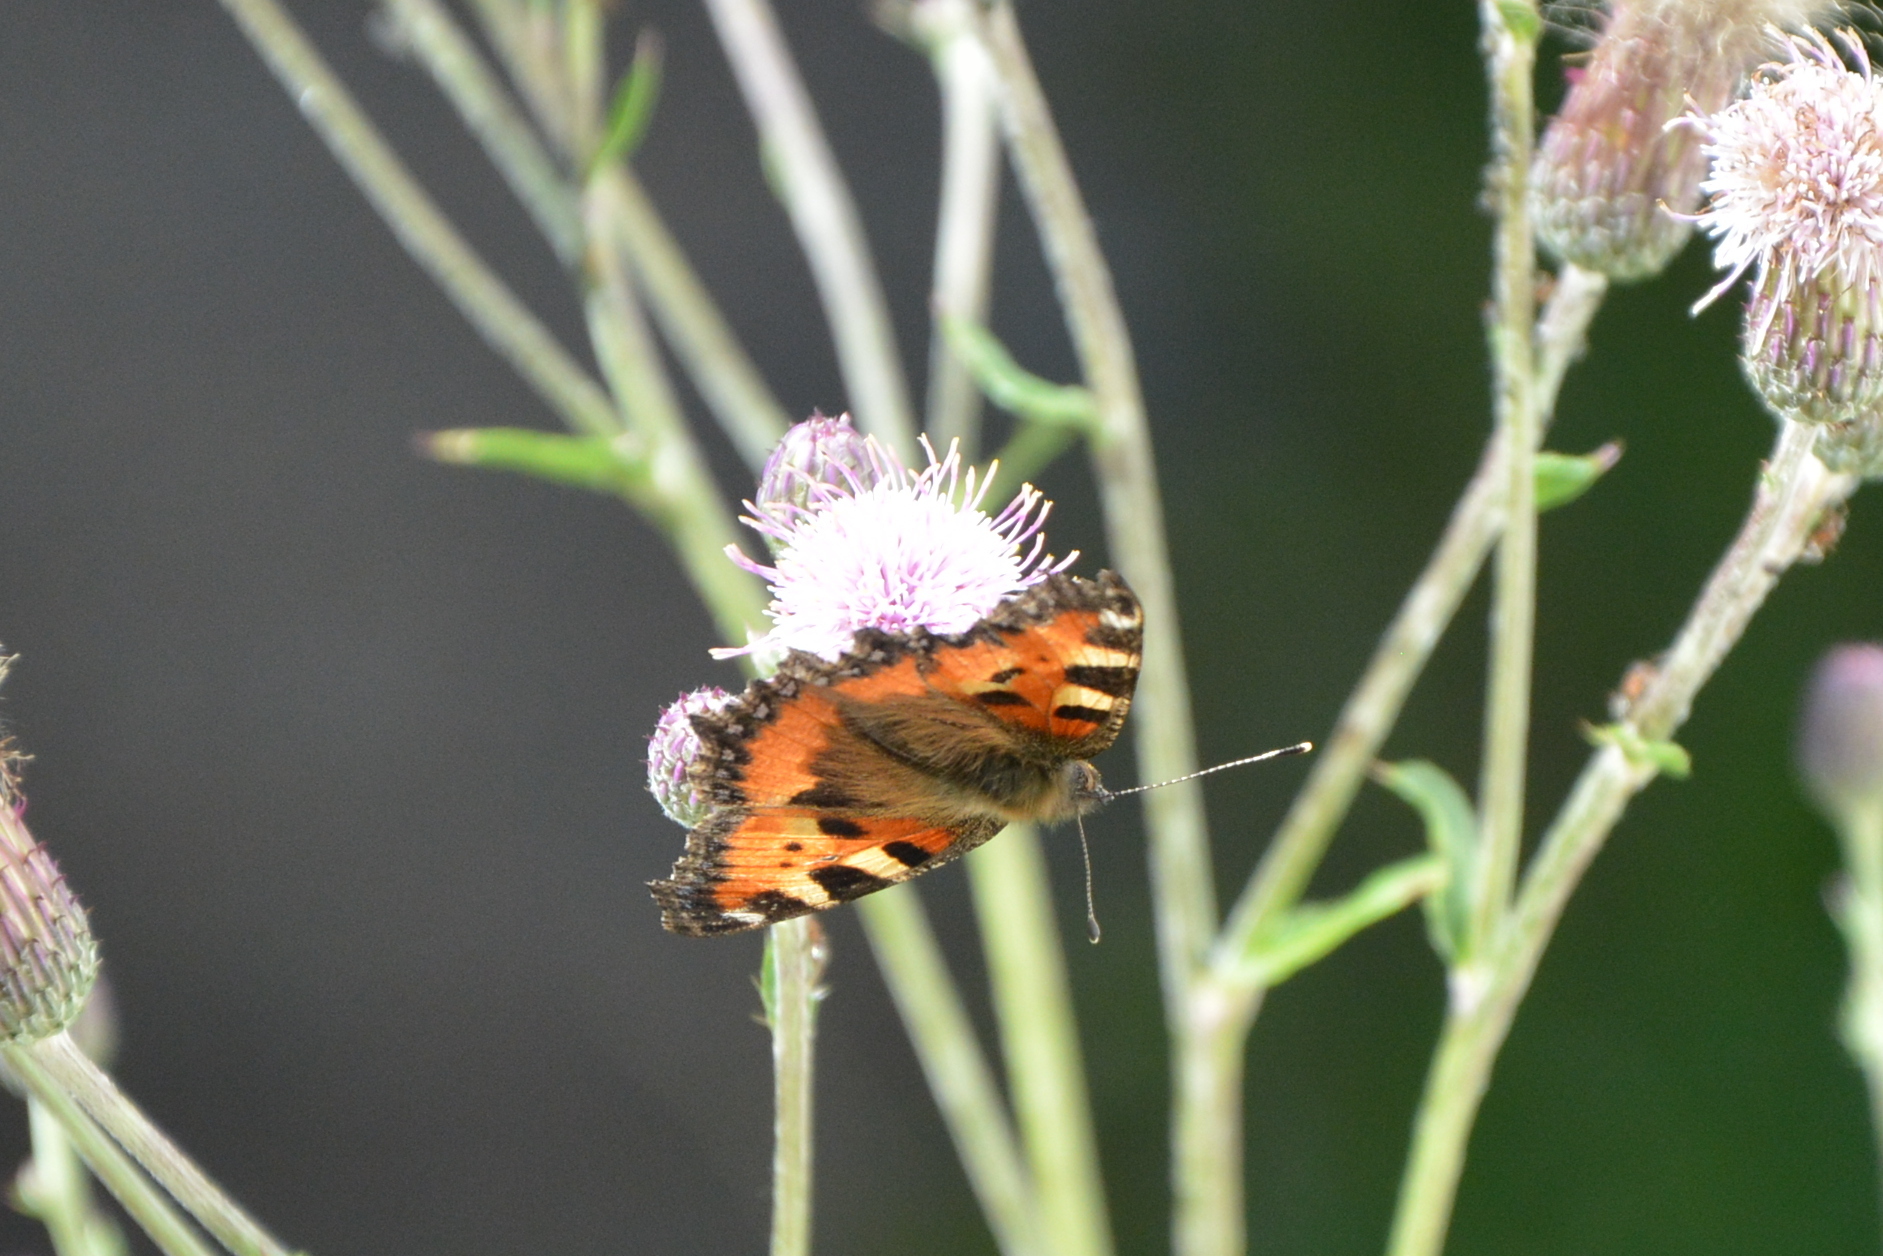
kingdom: Animalia
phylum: Arthropoda
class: Insecta
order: Lepidoptera
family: Nymphalidae
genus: Aglais
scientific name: Aglais urticae
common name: Small tortoiseshell
